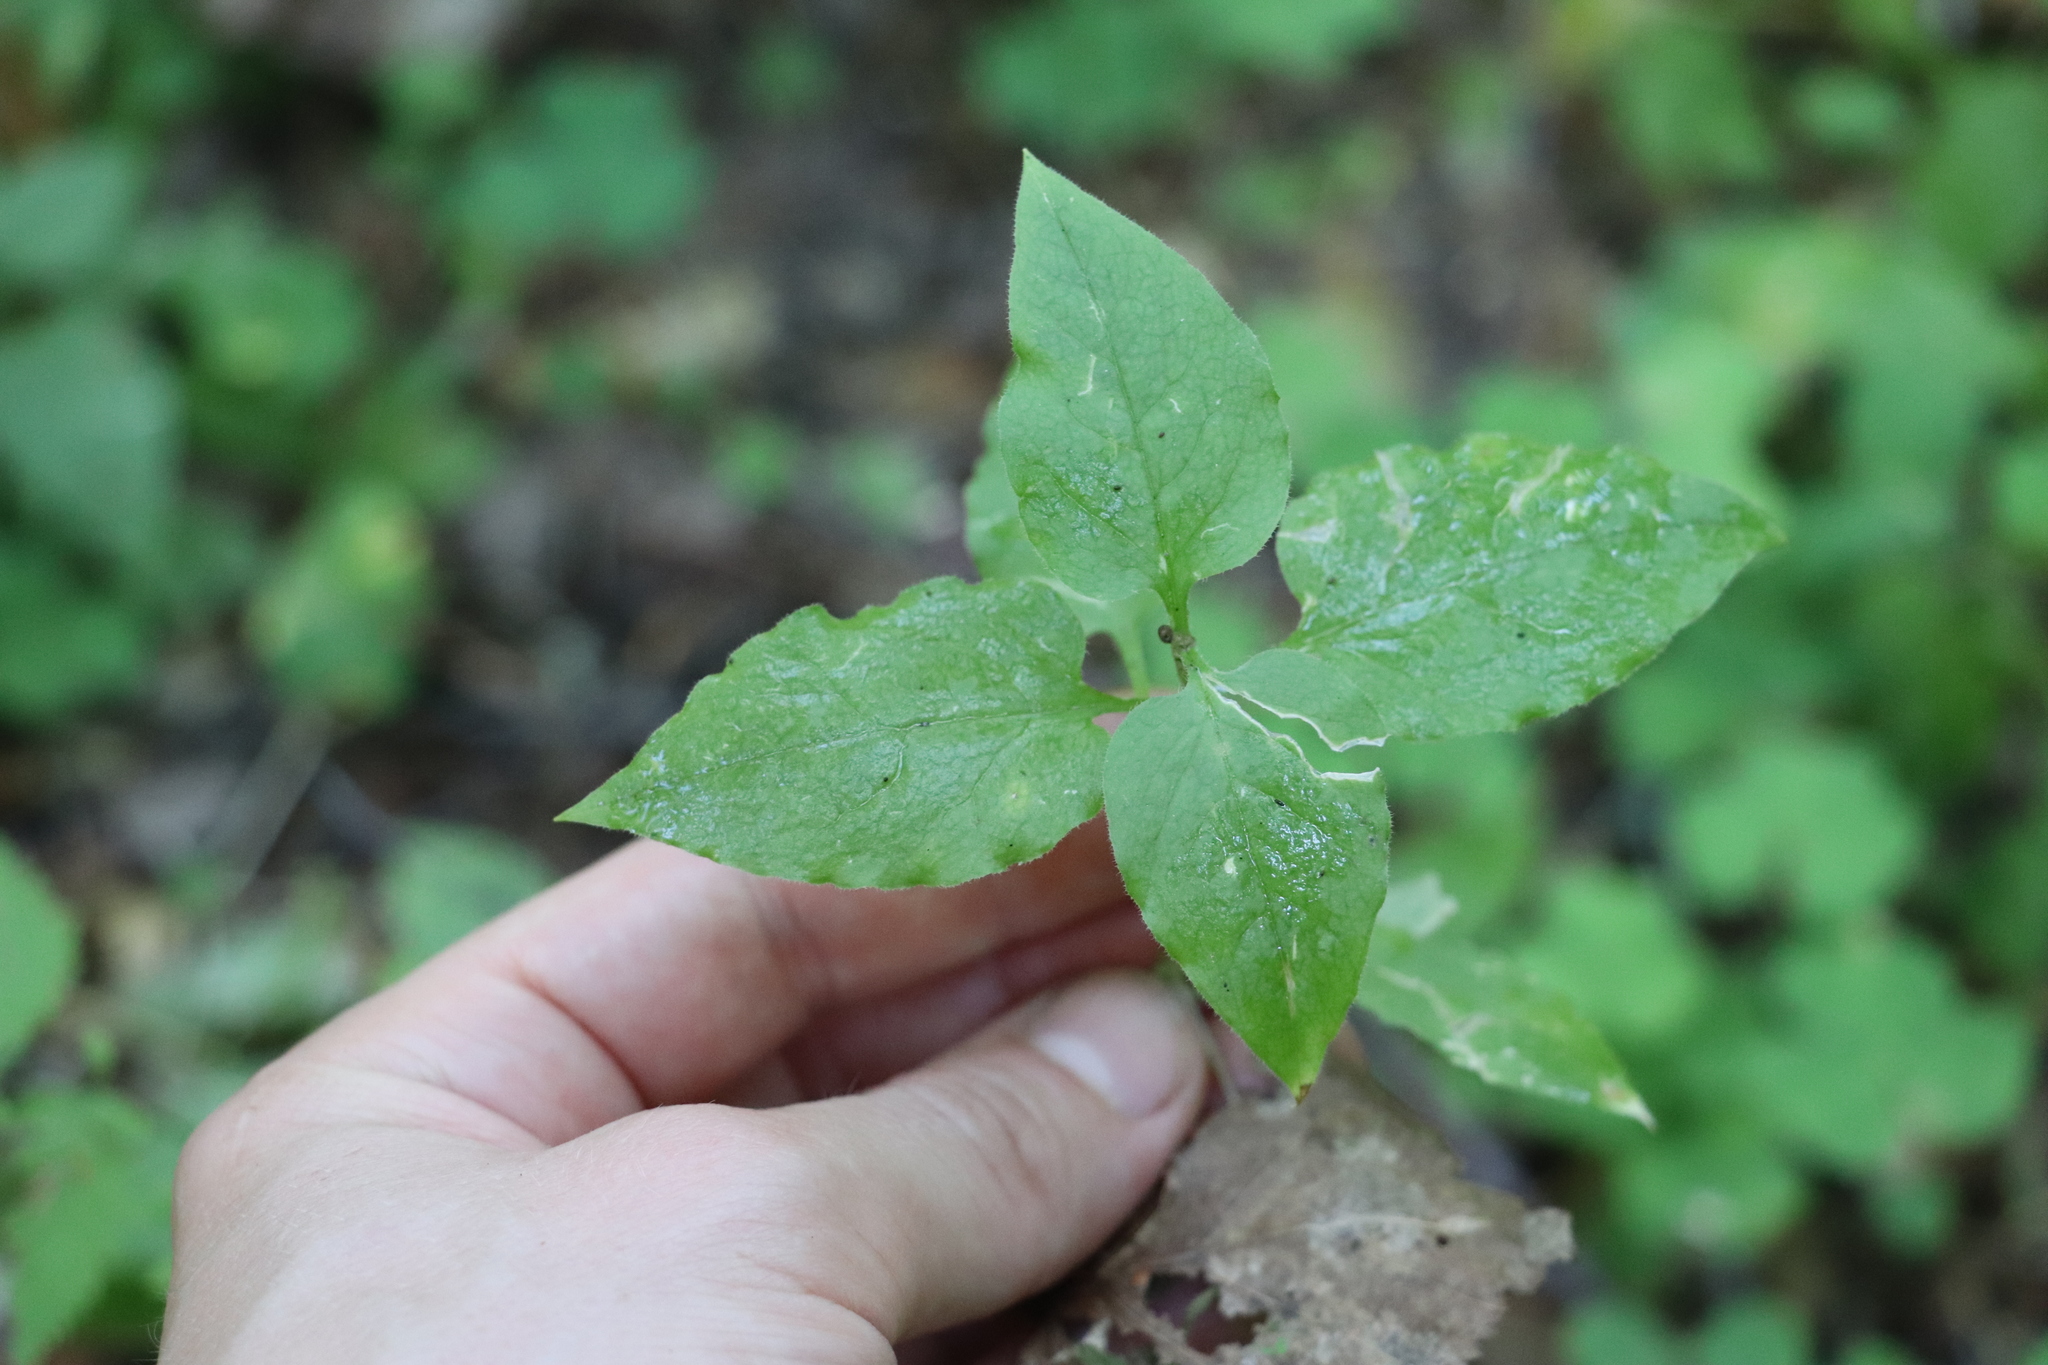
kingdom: Plantae
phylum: Tracheophyta
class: Magnoliopsida
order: Caryophyllales
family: Caryophyllaceae
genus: Stellaria
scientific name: Stellaria bungeana
